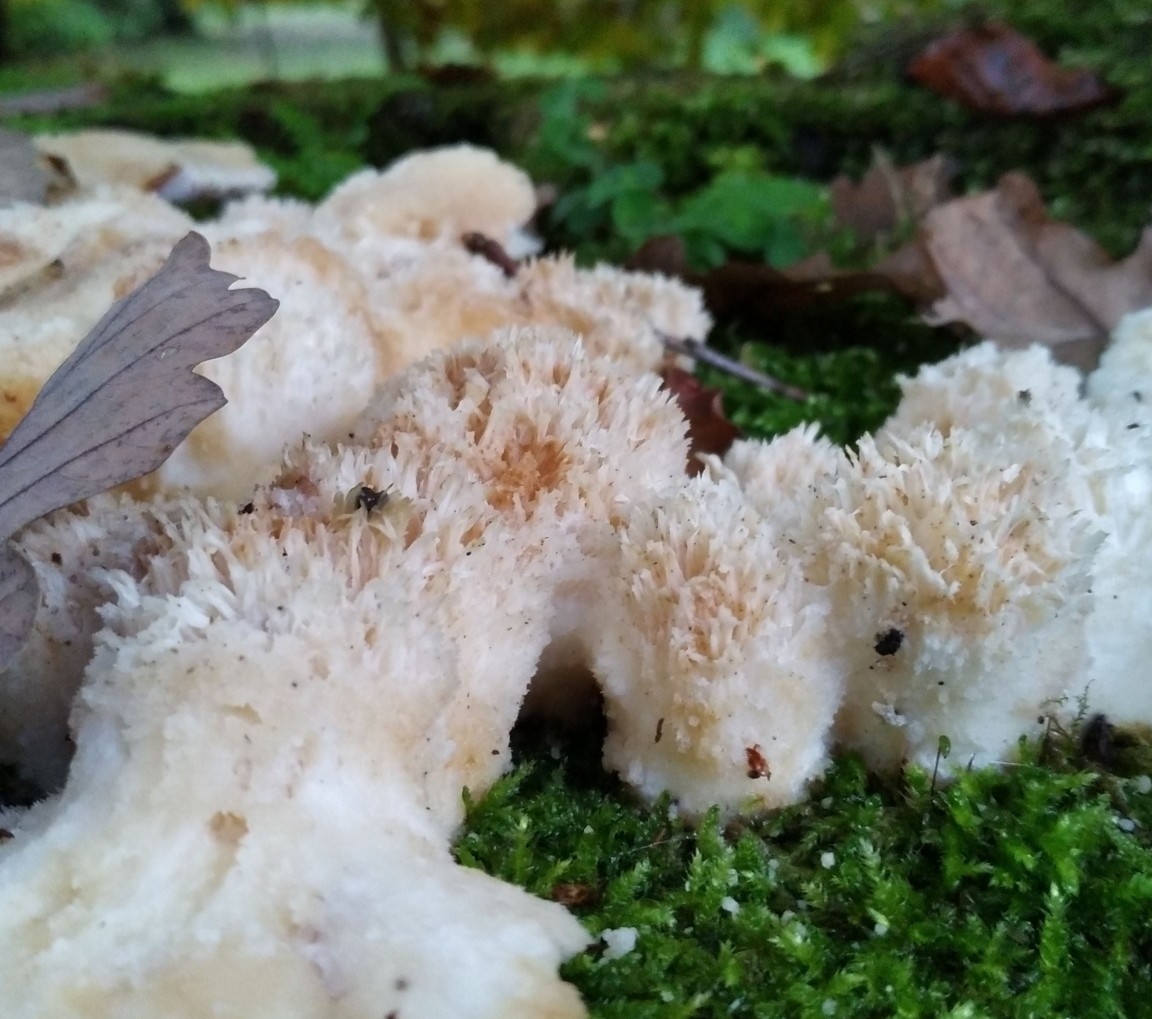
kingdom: Fungi
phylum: Basidiomycota
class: Agaricomycetes
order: Polyporales
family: Dacryobolaceae
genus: Postia
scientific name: Postia ptychogaster
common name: Powderpuff bracket
